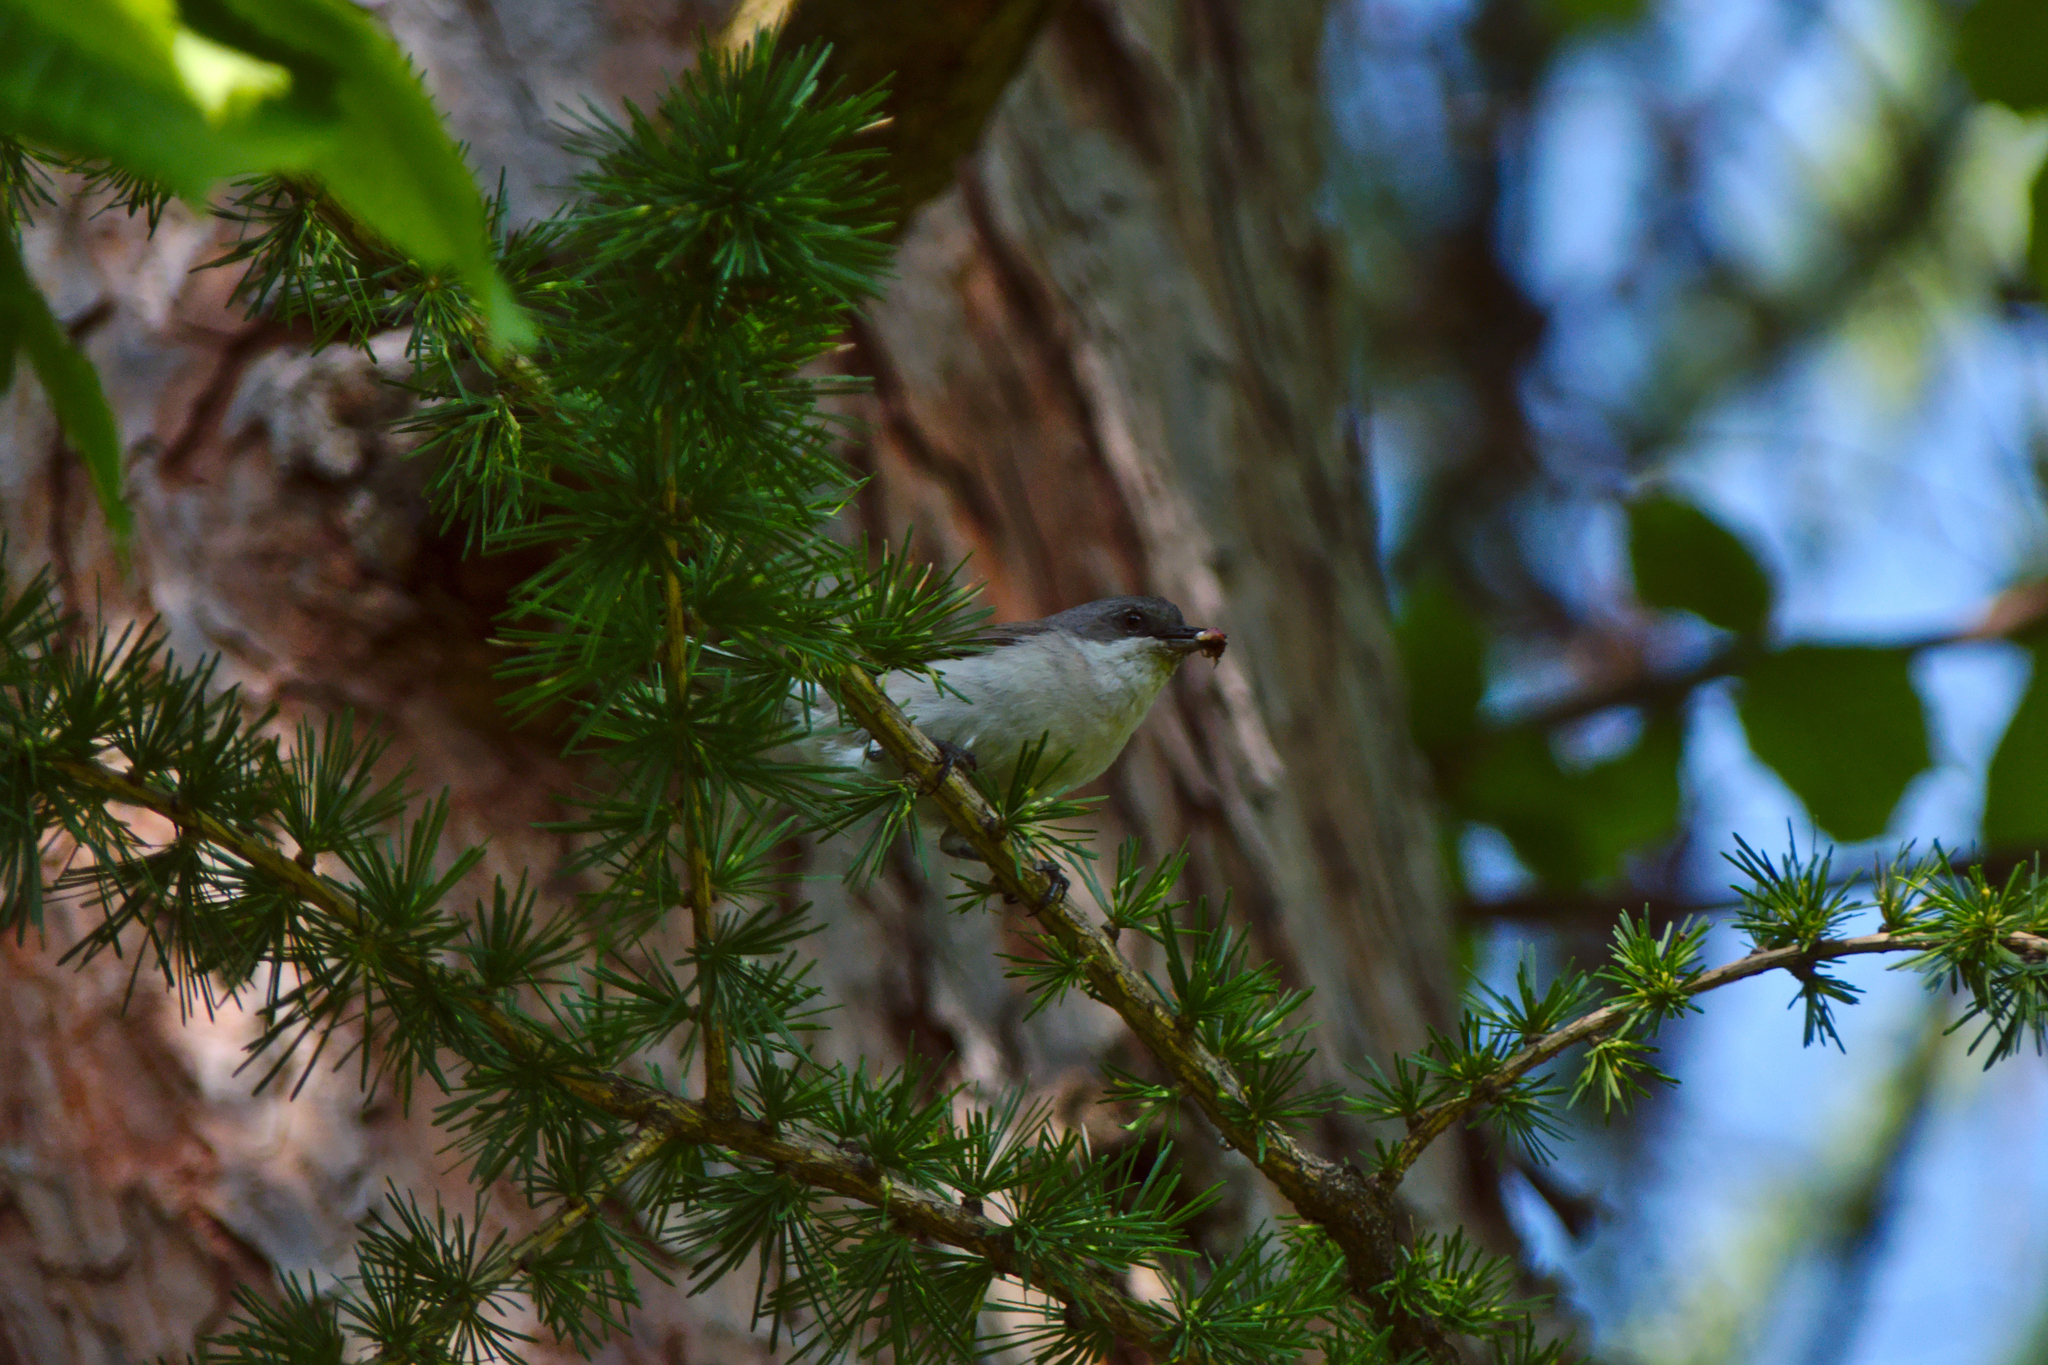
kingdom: Animalia
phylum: Chordata
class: Aves
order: Passeriformes
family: Sylviidae
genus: Sylvia
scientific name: Sylvia curruca
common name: Lesser whitethroat
